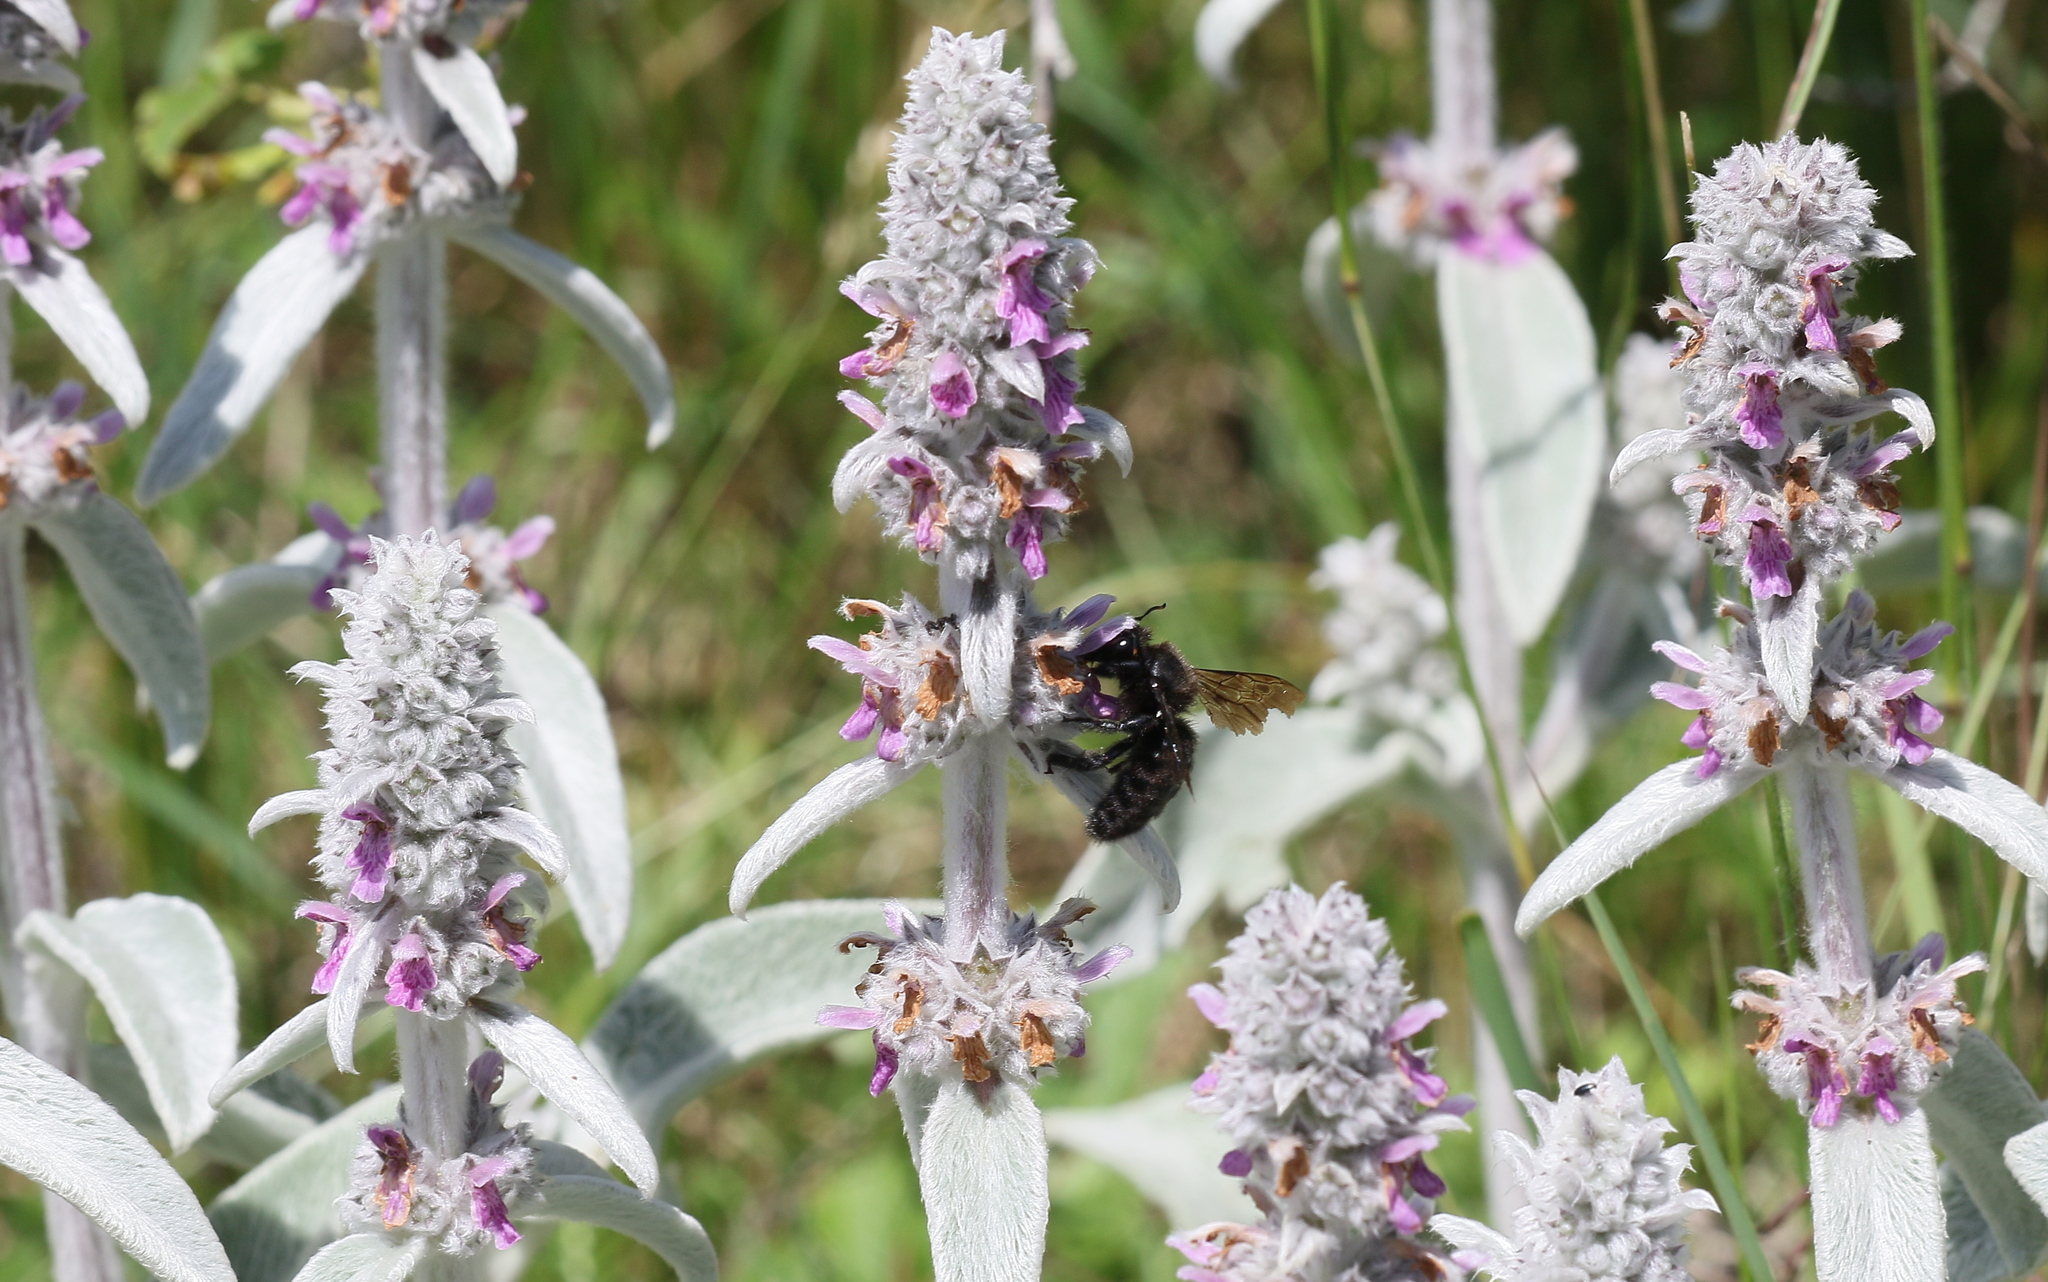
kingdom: Animalia
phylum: Arthropoda
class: Insecta
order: Hymenoptera
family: Apidae
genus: Xylocopa
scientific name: Xylocopa violacea
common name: Violet carpenter bee
